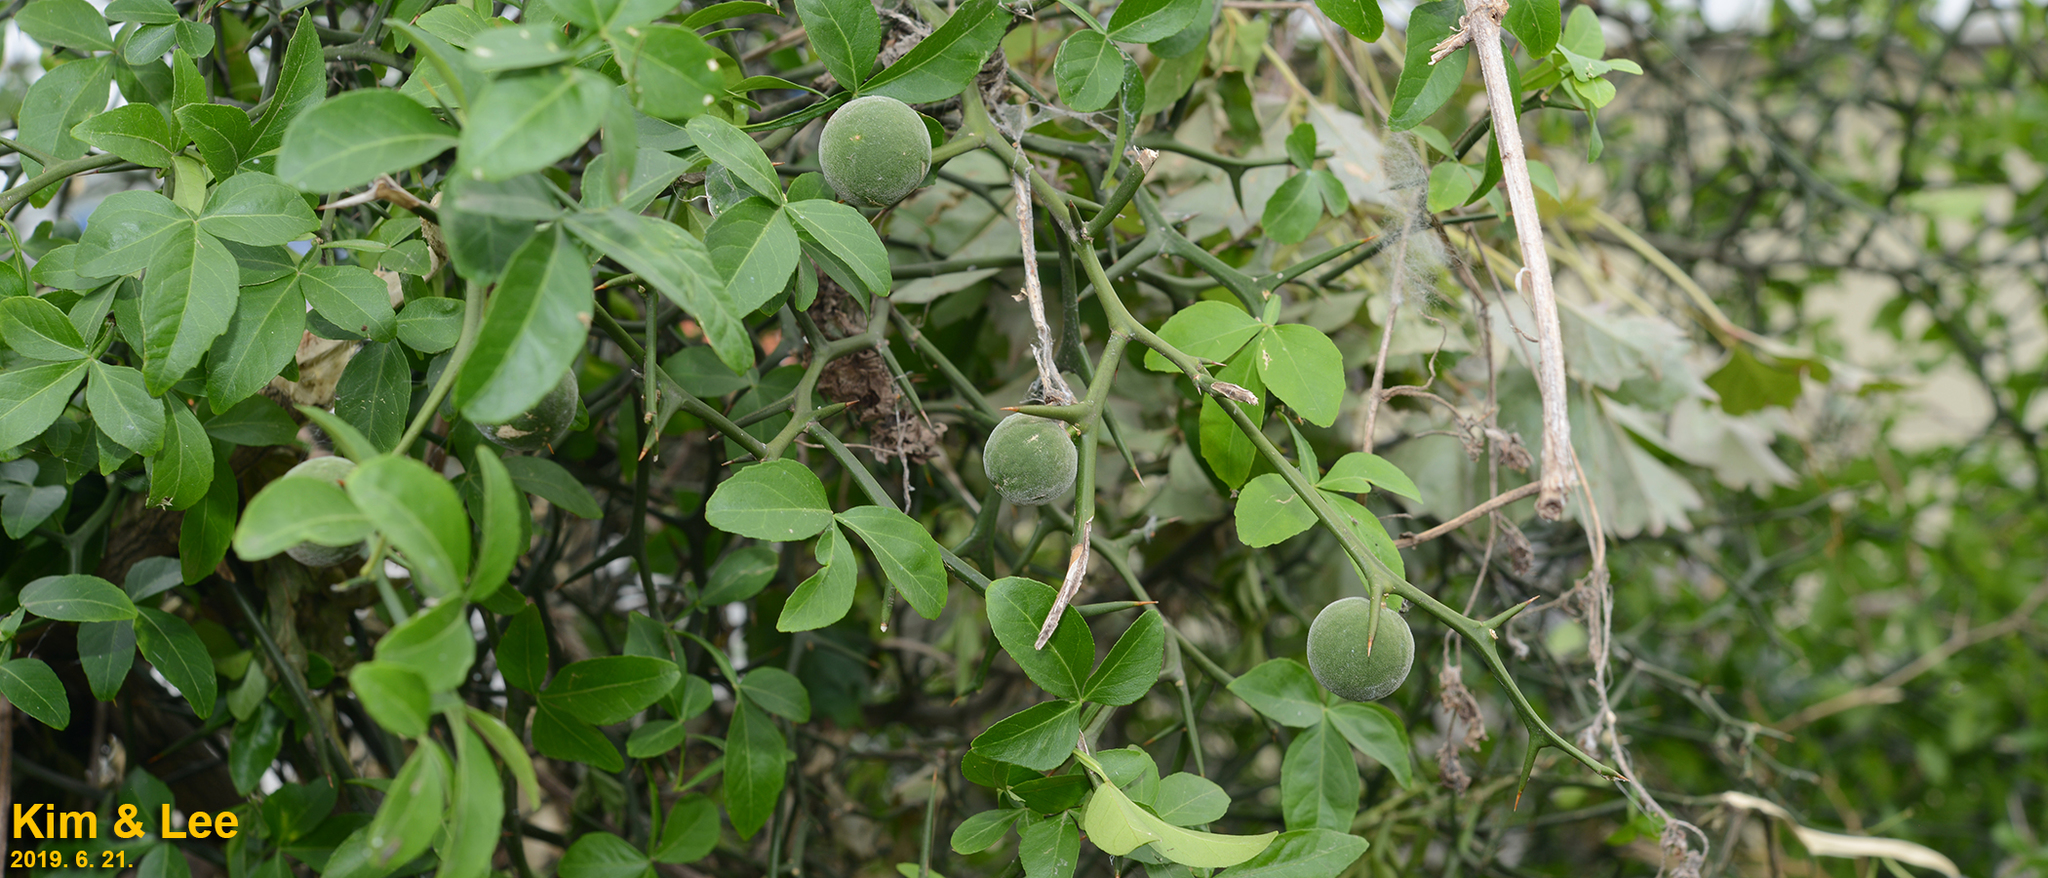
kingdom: Plantae
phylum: Tracheophyta
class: Magnoliopsida
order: Sapindales
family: Rutaceae
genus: Citrus
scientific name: Citrus trifoliata
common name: Japanese bitter-orange
